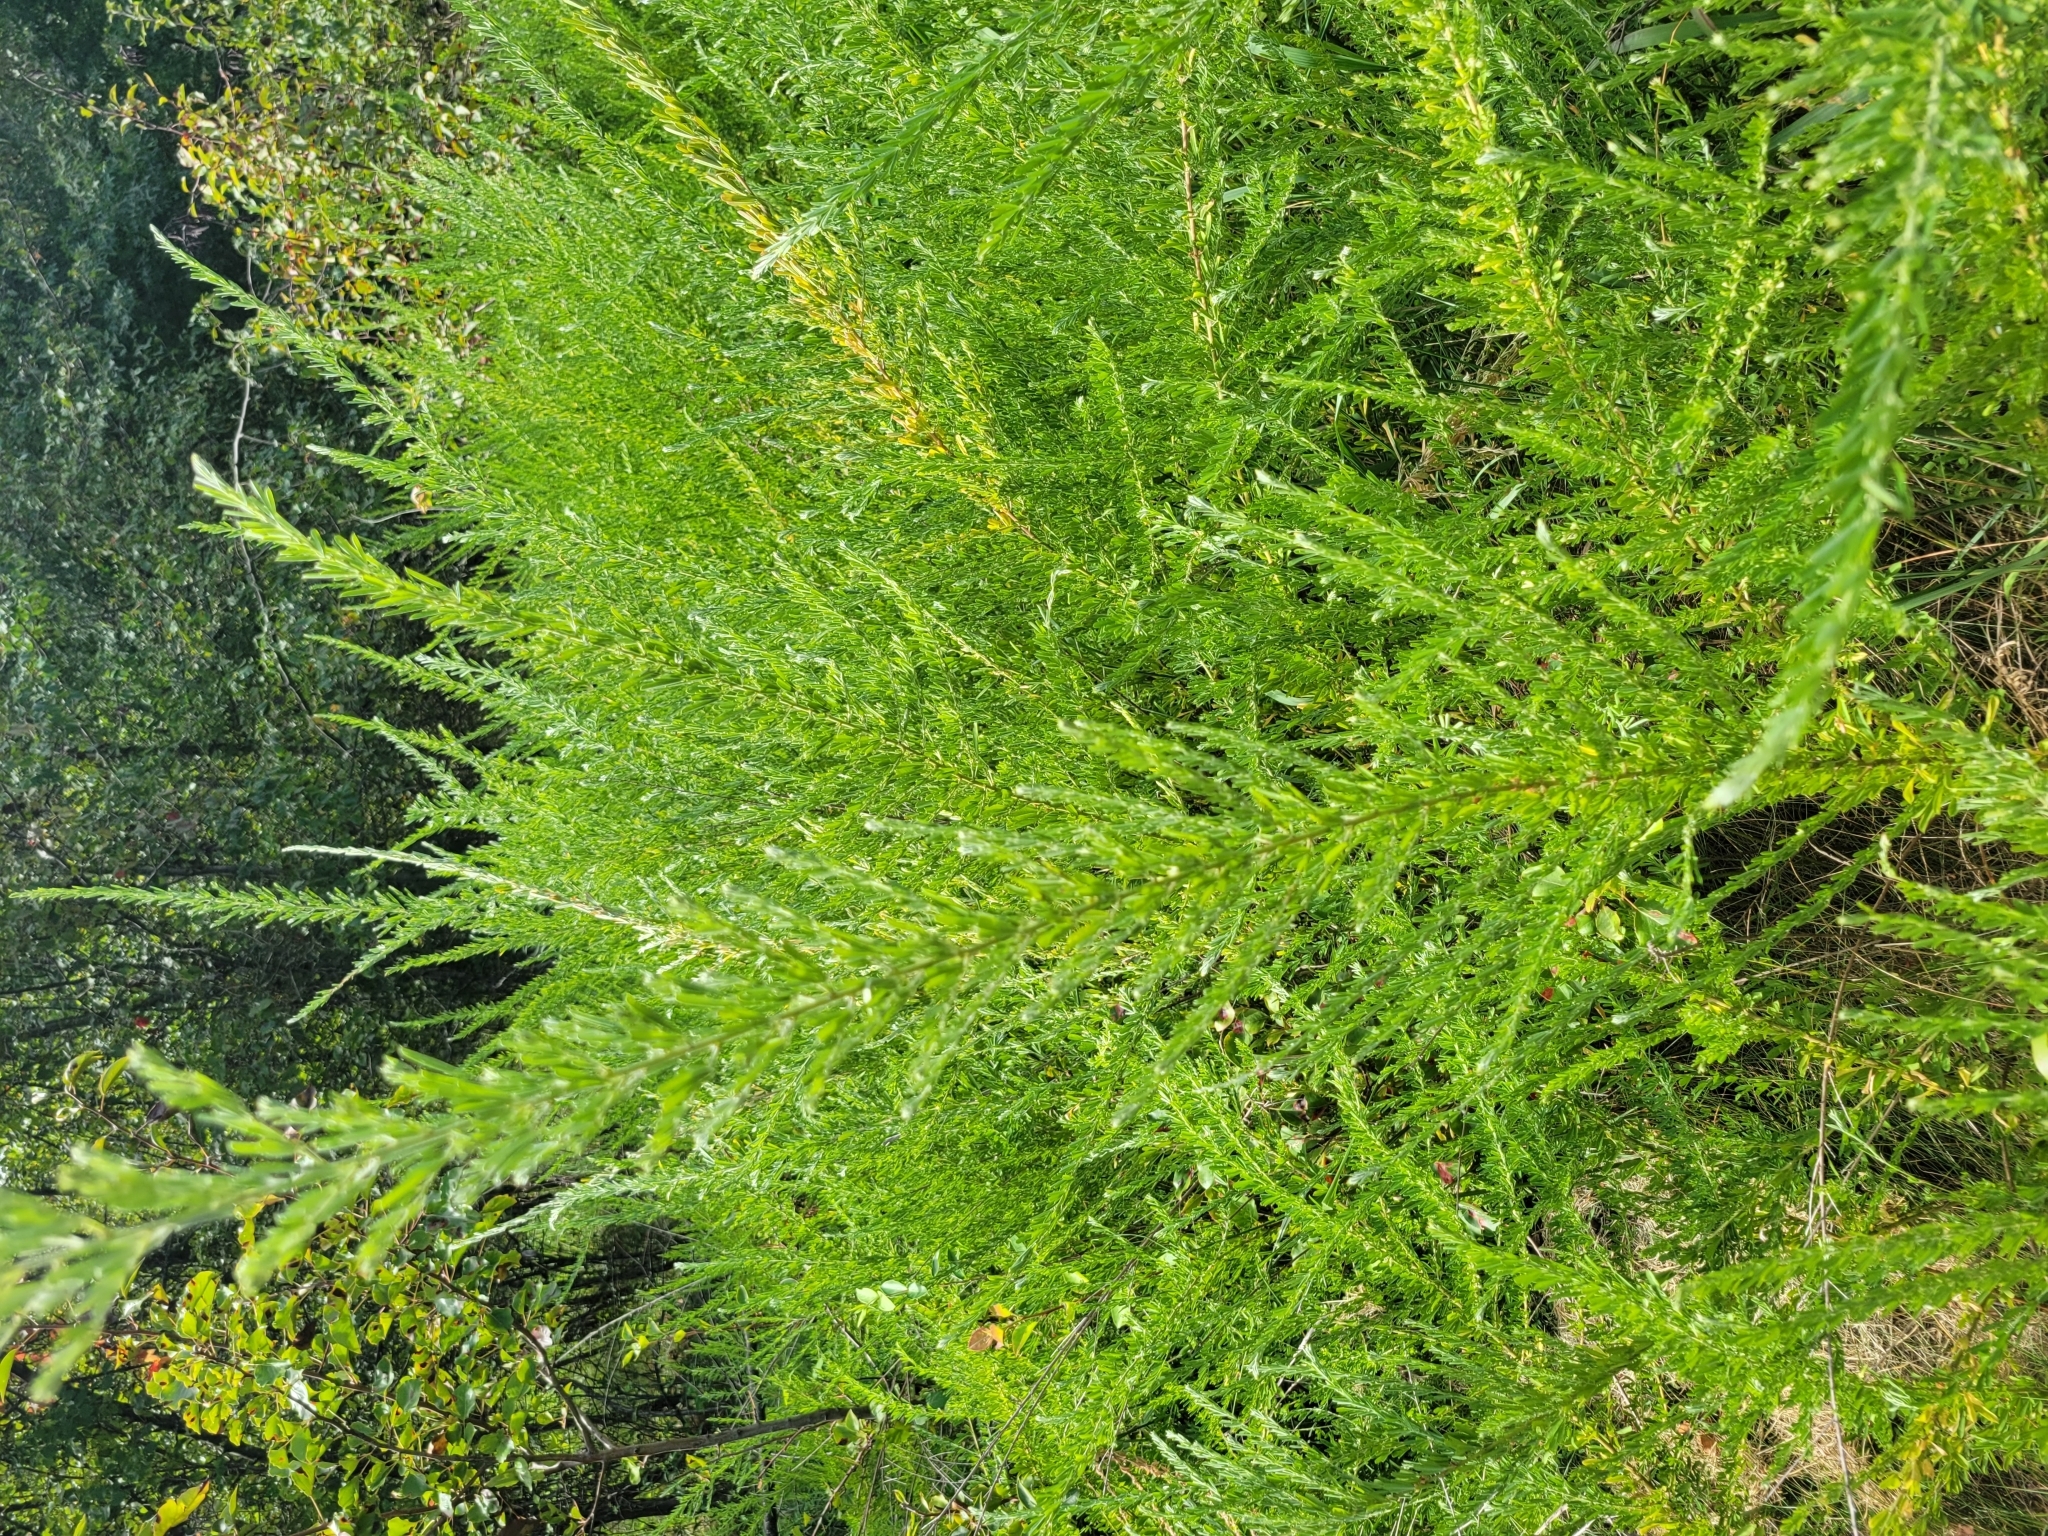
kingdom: Plantae
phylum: Tracheophyta
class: Magnoliopsida
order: Fabales
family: Fabaceae
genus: Lespedeza
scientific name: Lespedeza cuneata
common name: Chinese bush-clover
